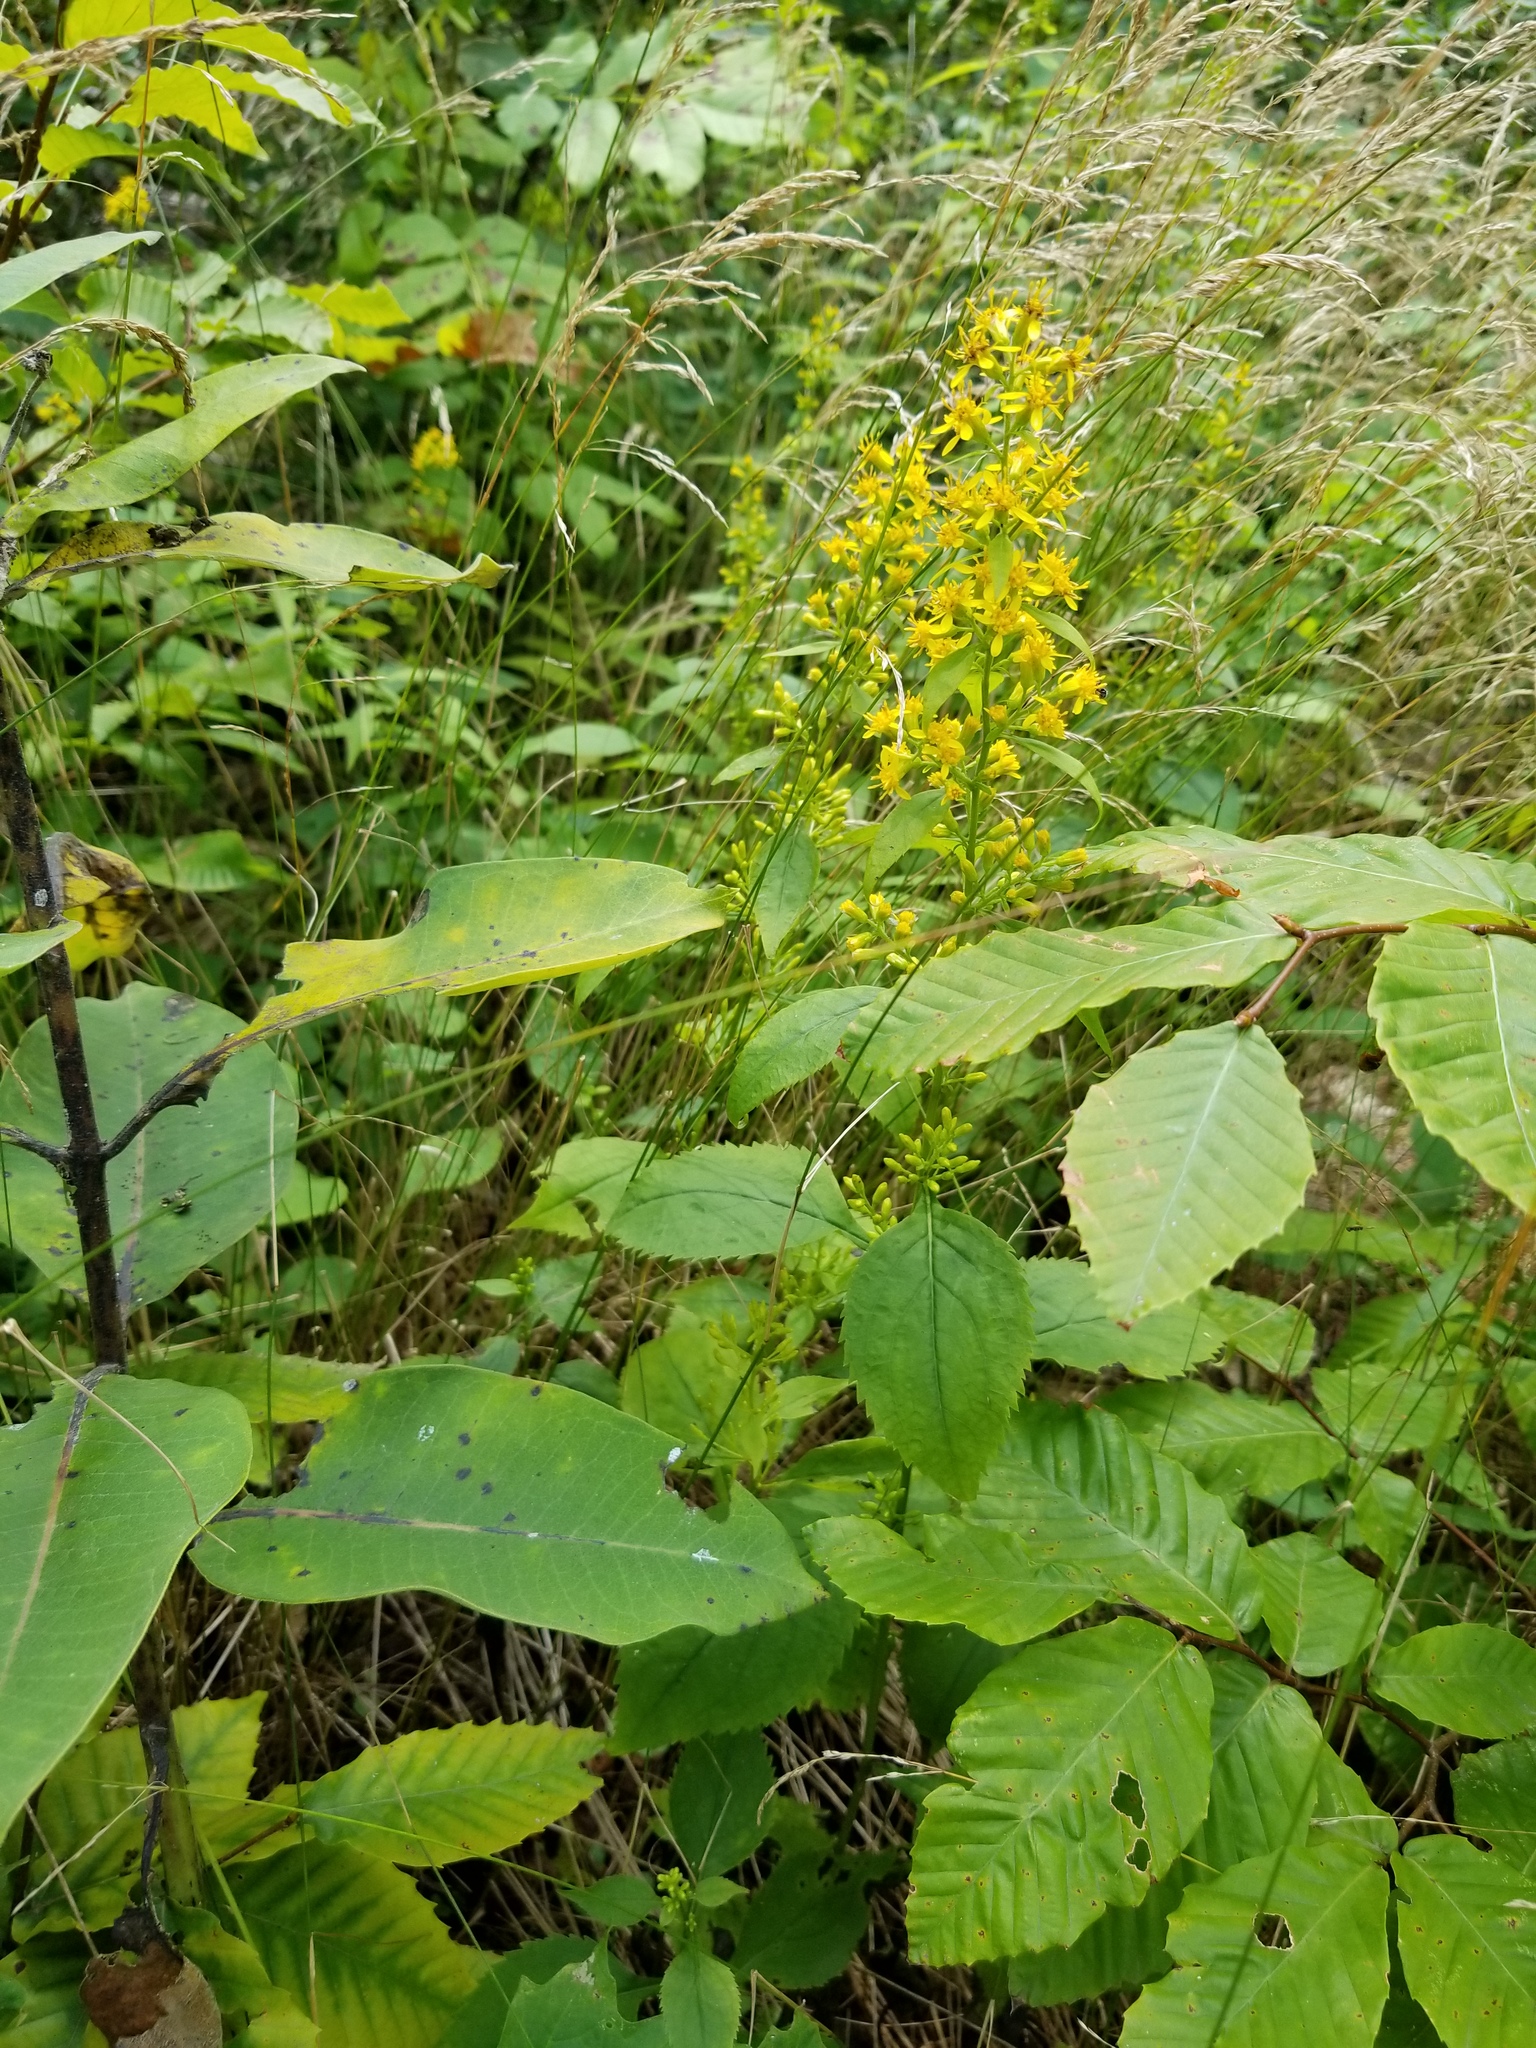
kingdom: Plantae
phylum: Tracheophyta
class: Magnoliopsida
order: Asterales
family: Asteraceae
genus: Solidago
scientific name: Solidago flexicaulis
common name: Zig-zag goldenrod
